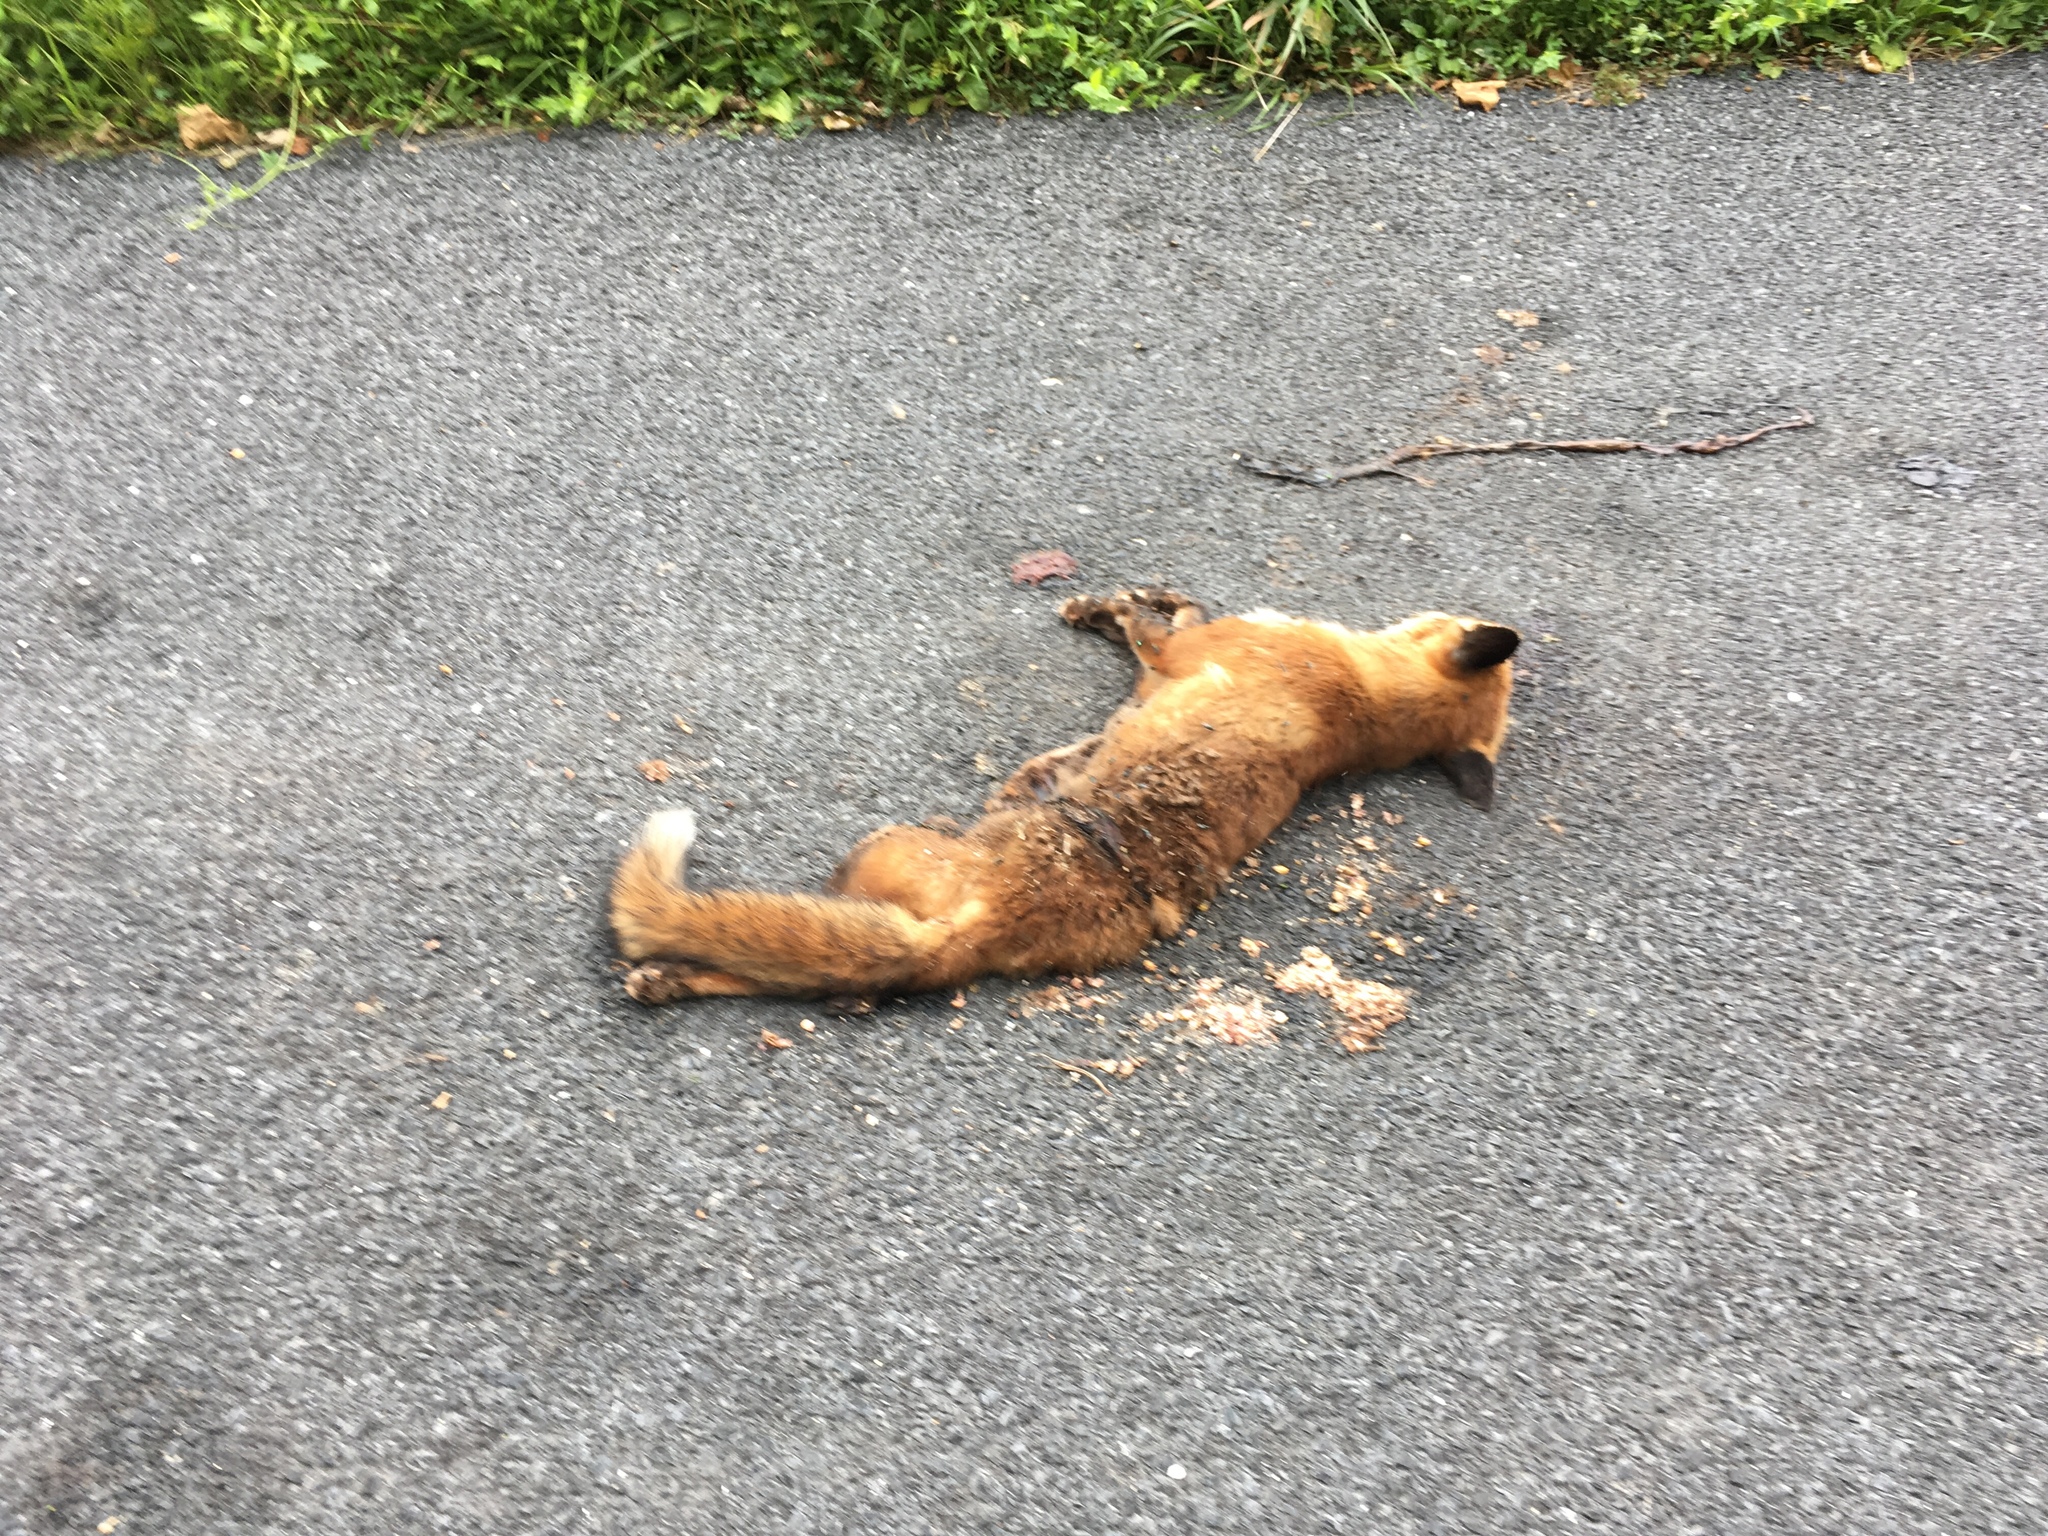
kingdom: Animalia
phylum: Chordata
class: Mammalia
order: Carnivora
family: Canidae
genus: Vulpes
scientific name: Vulpes vulpes
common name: Red fox
